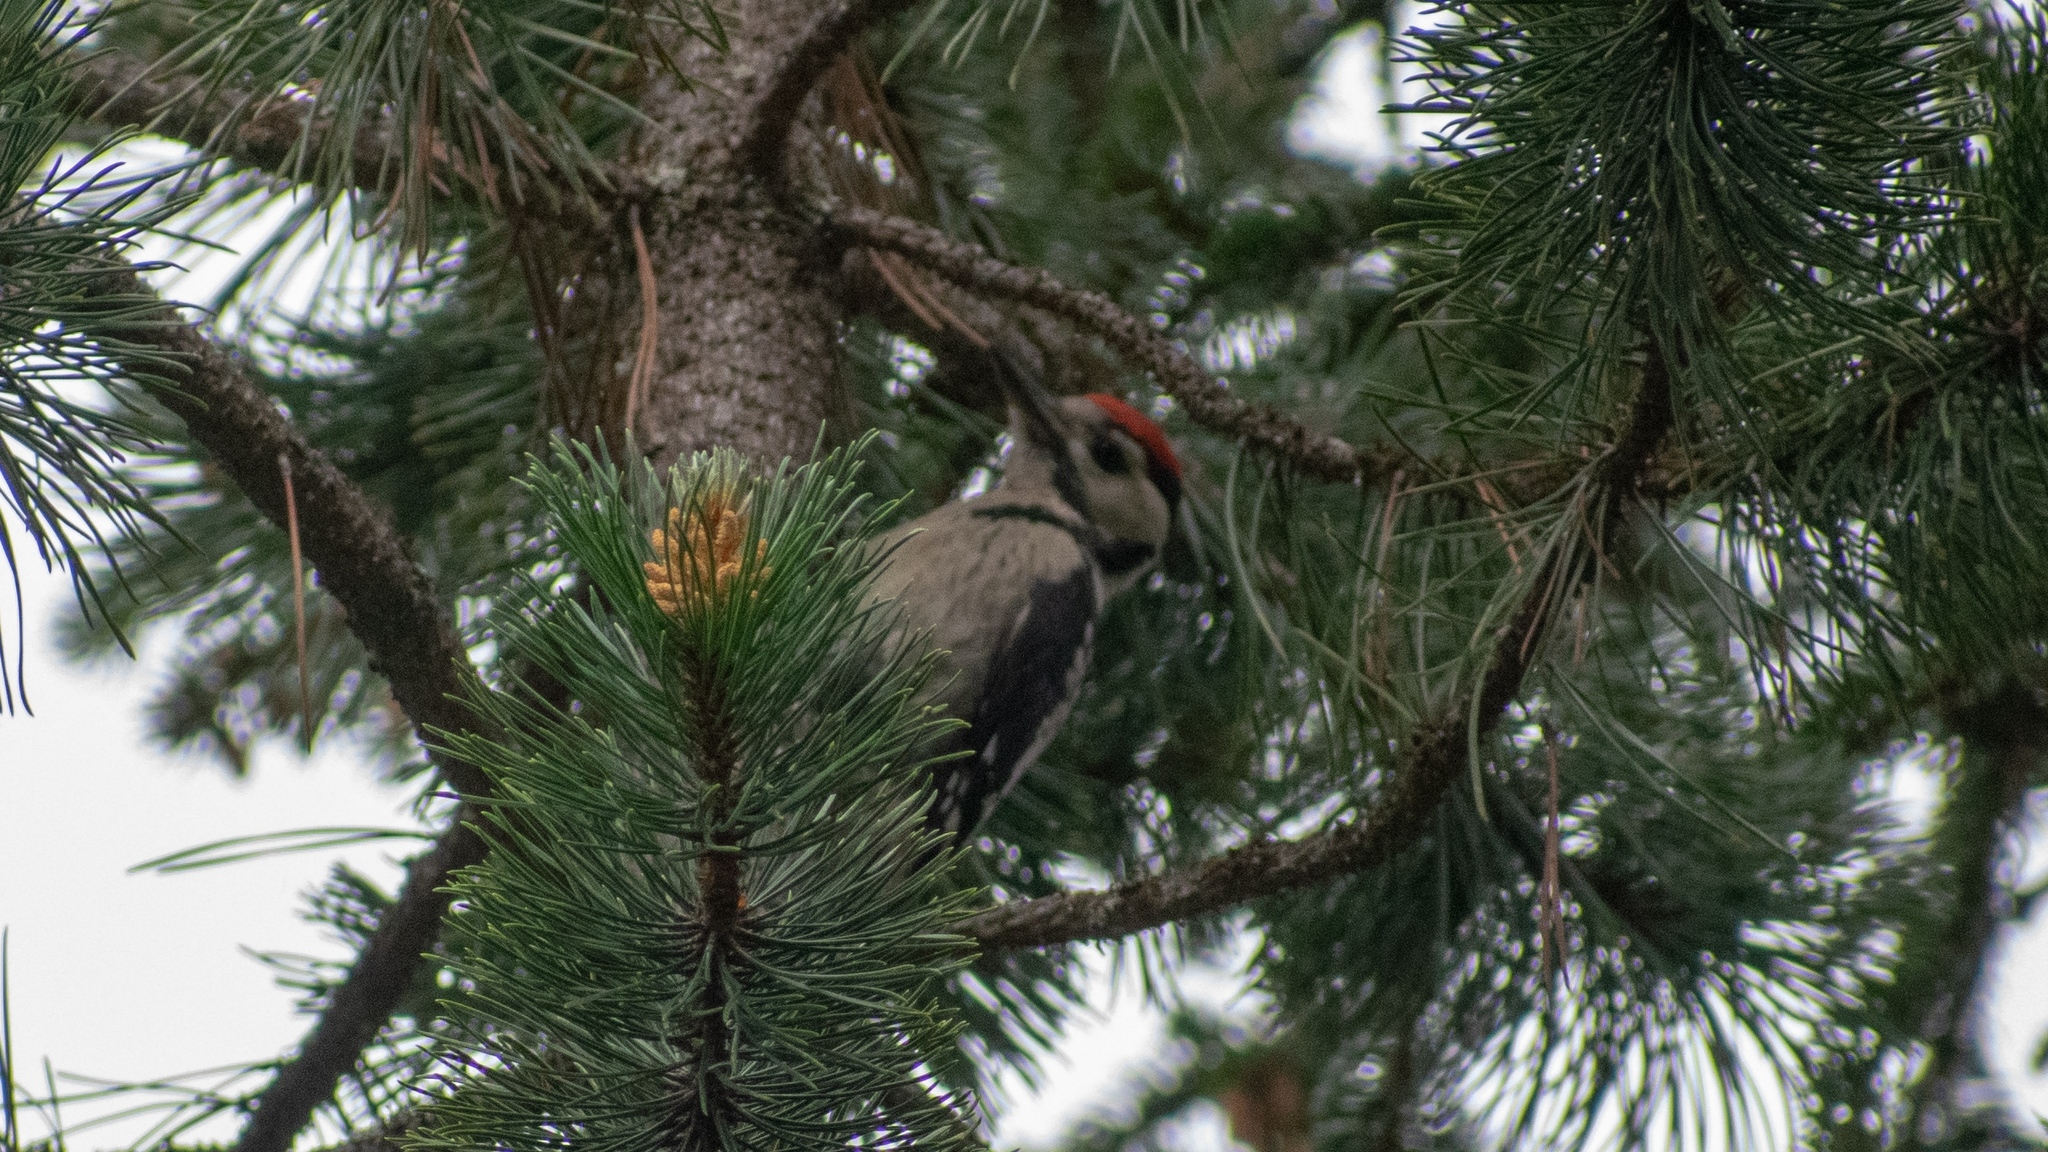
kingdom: Animalia
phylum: Chordata
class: Aves
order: Piciformes
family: Picidae
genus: Dendrocopos
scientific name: Dendrocopos major
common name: Great spotted woodpecker
